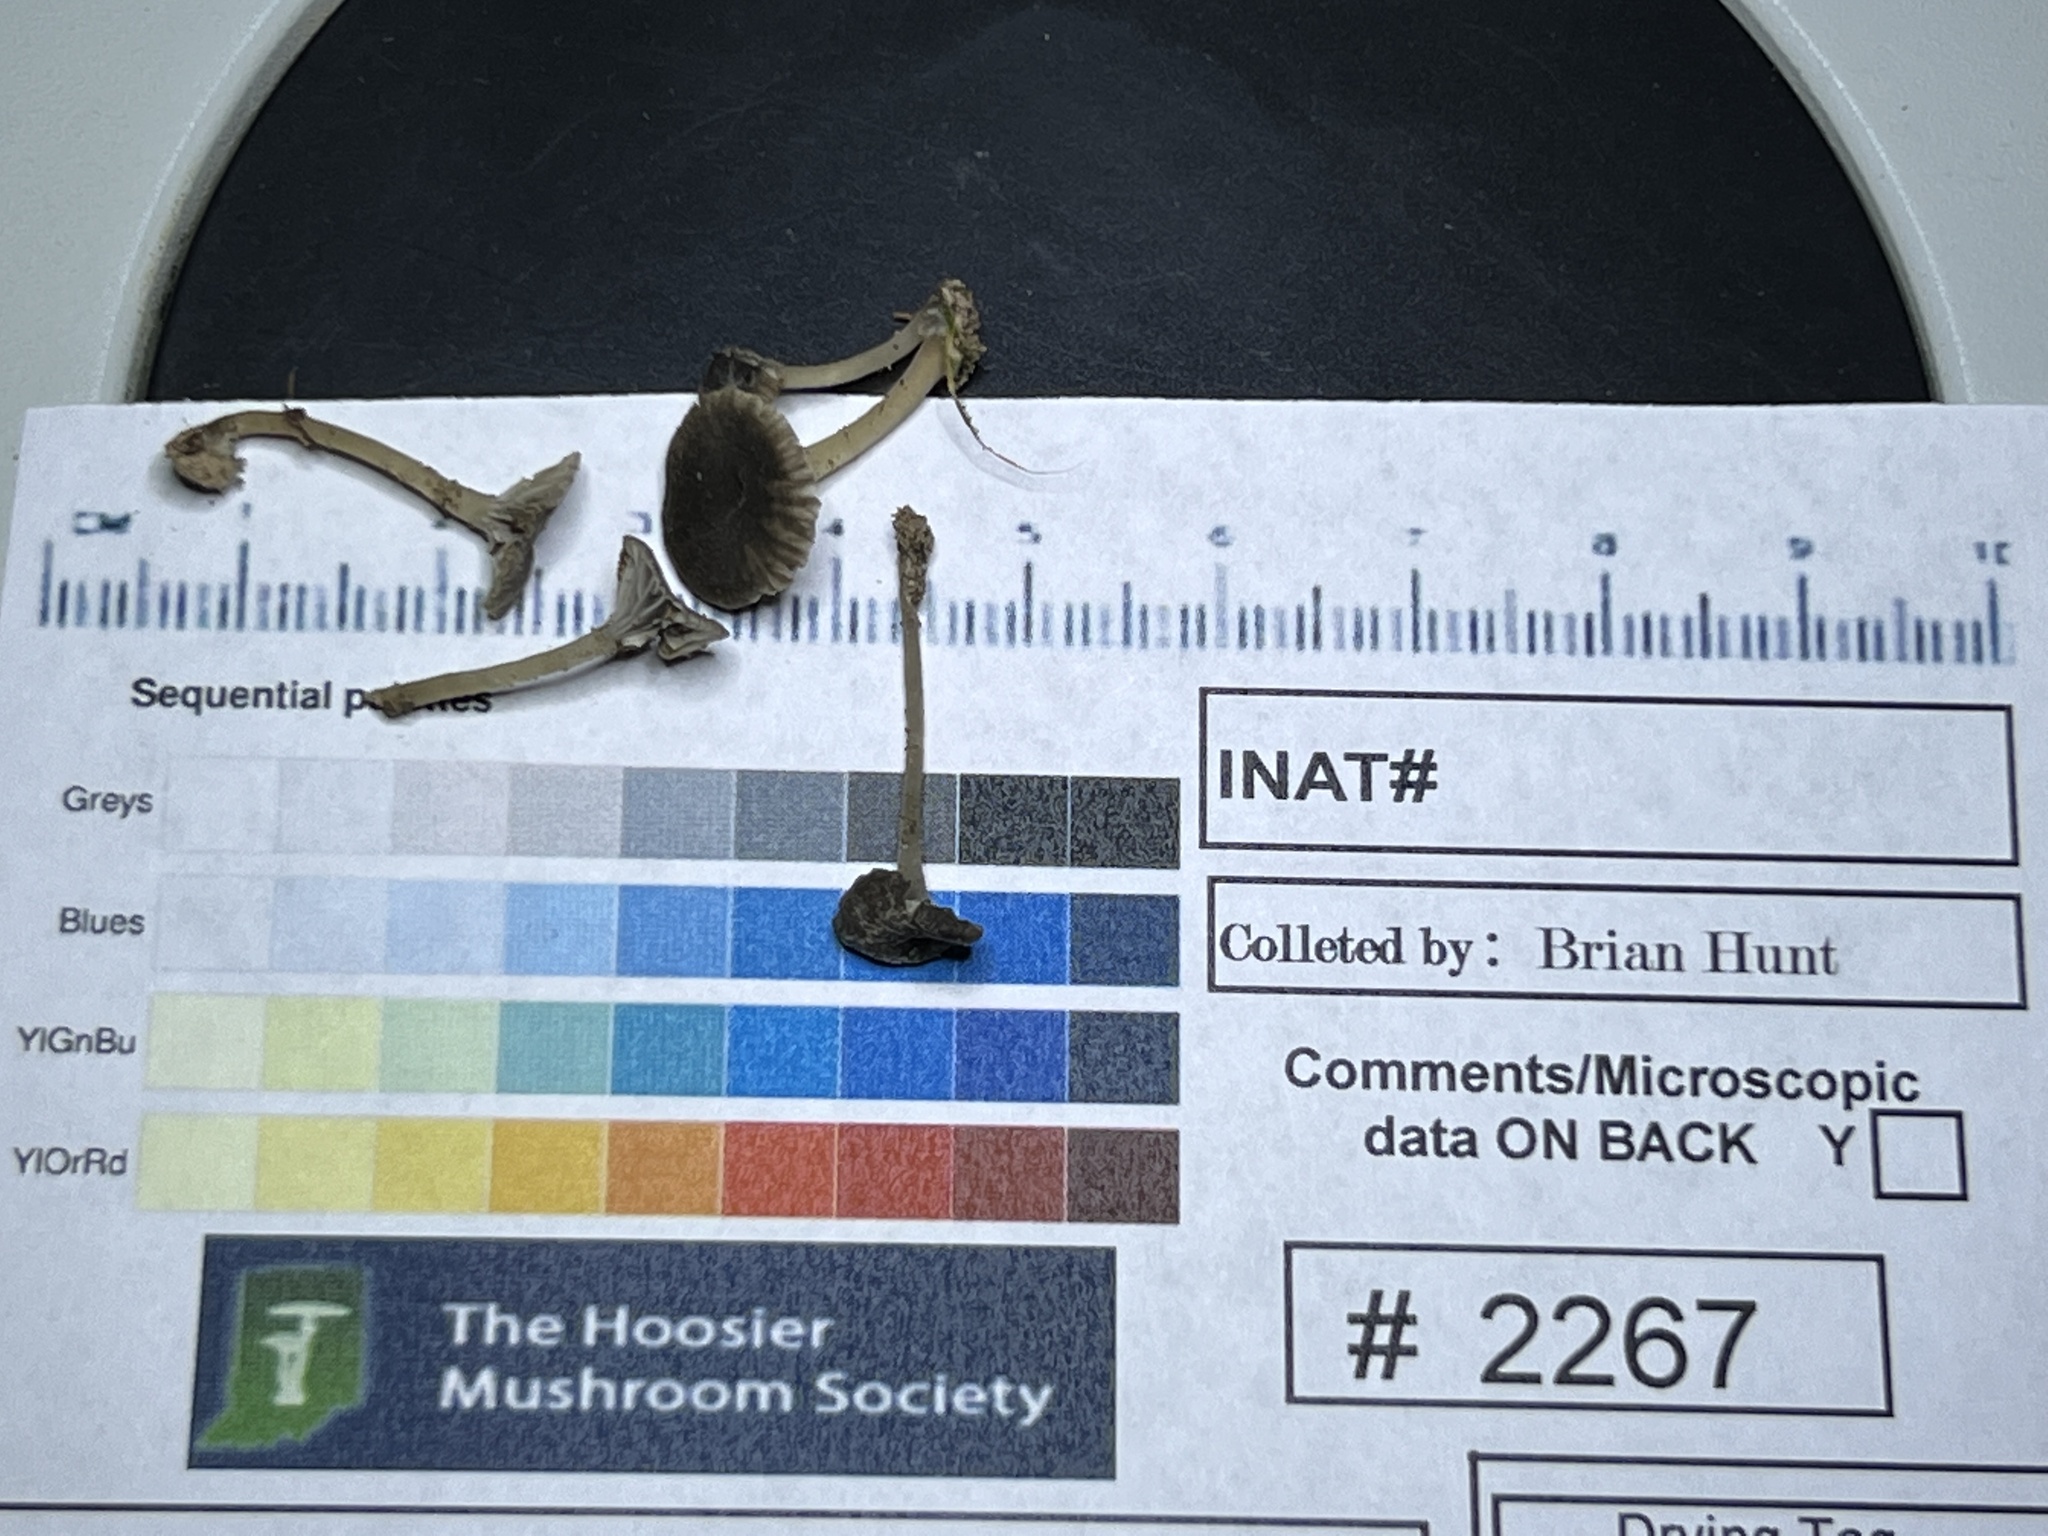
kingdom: Fungi
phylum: Basidiomycota
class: Agaricomycetes
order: Agaricales
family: Mycenaceae
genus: Hydropus
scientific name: Hydropus praedecurrens
